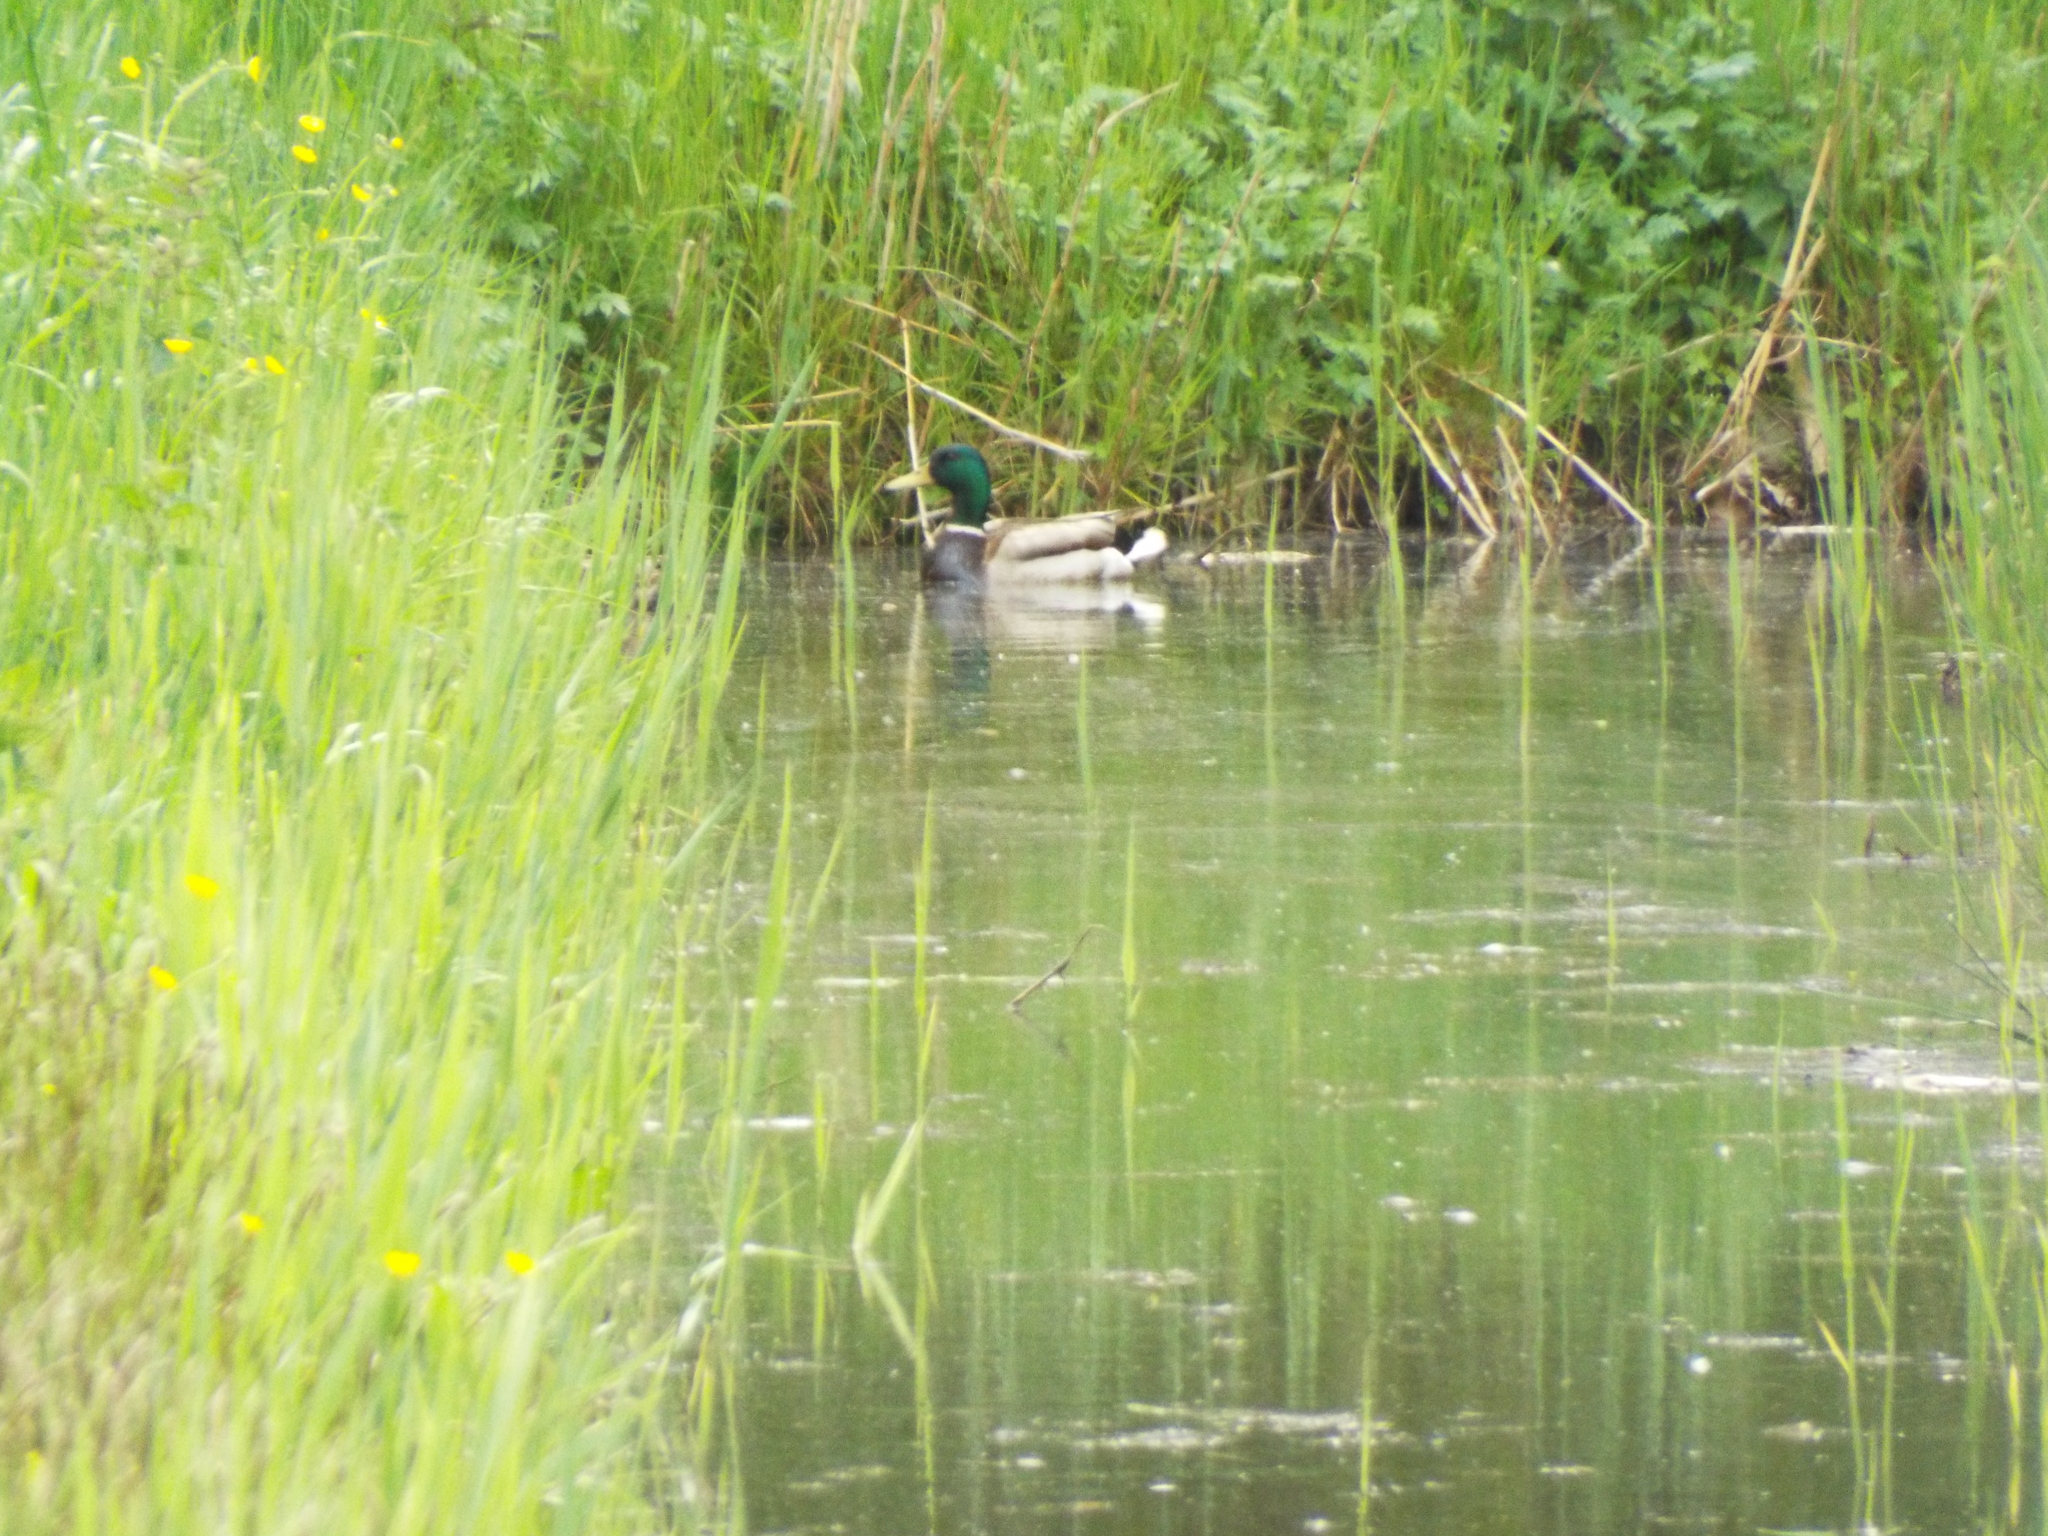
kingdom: Animalia
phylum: Chordata
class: Aves
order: Anseriformes
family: Anatidae
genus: Anas
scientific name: Anas platyrhynchos
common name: Mallard
